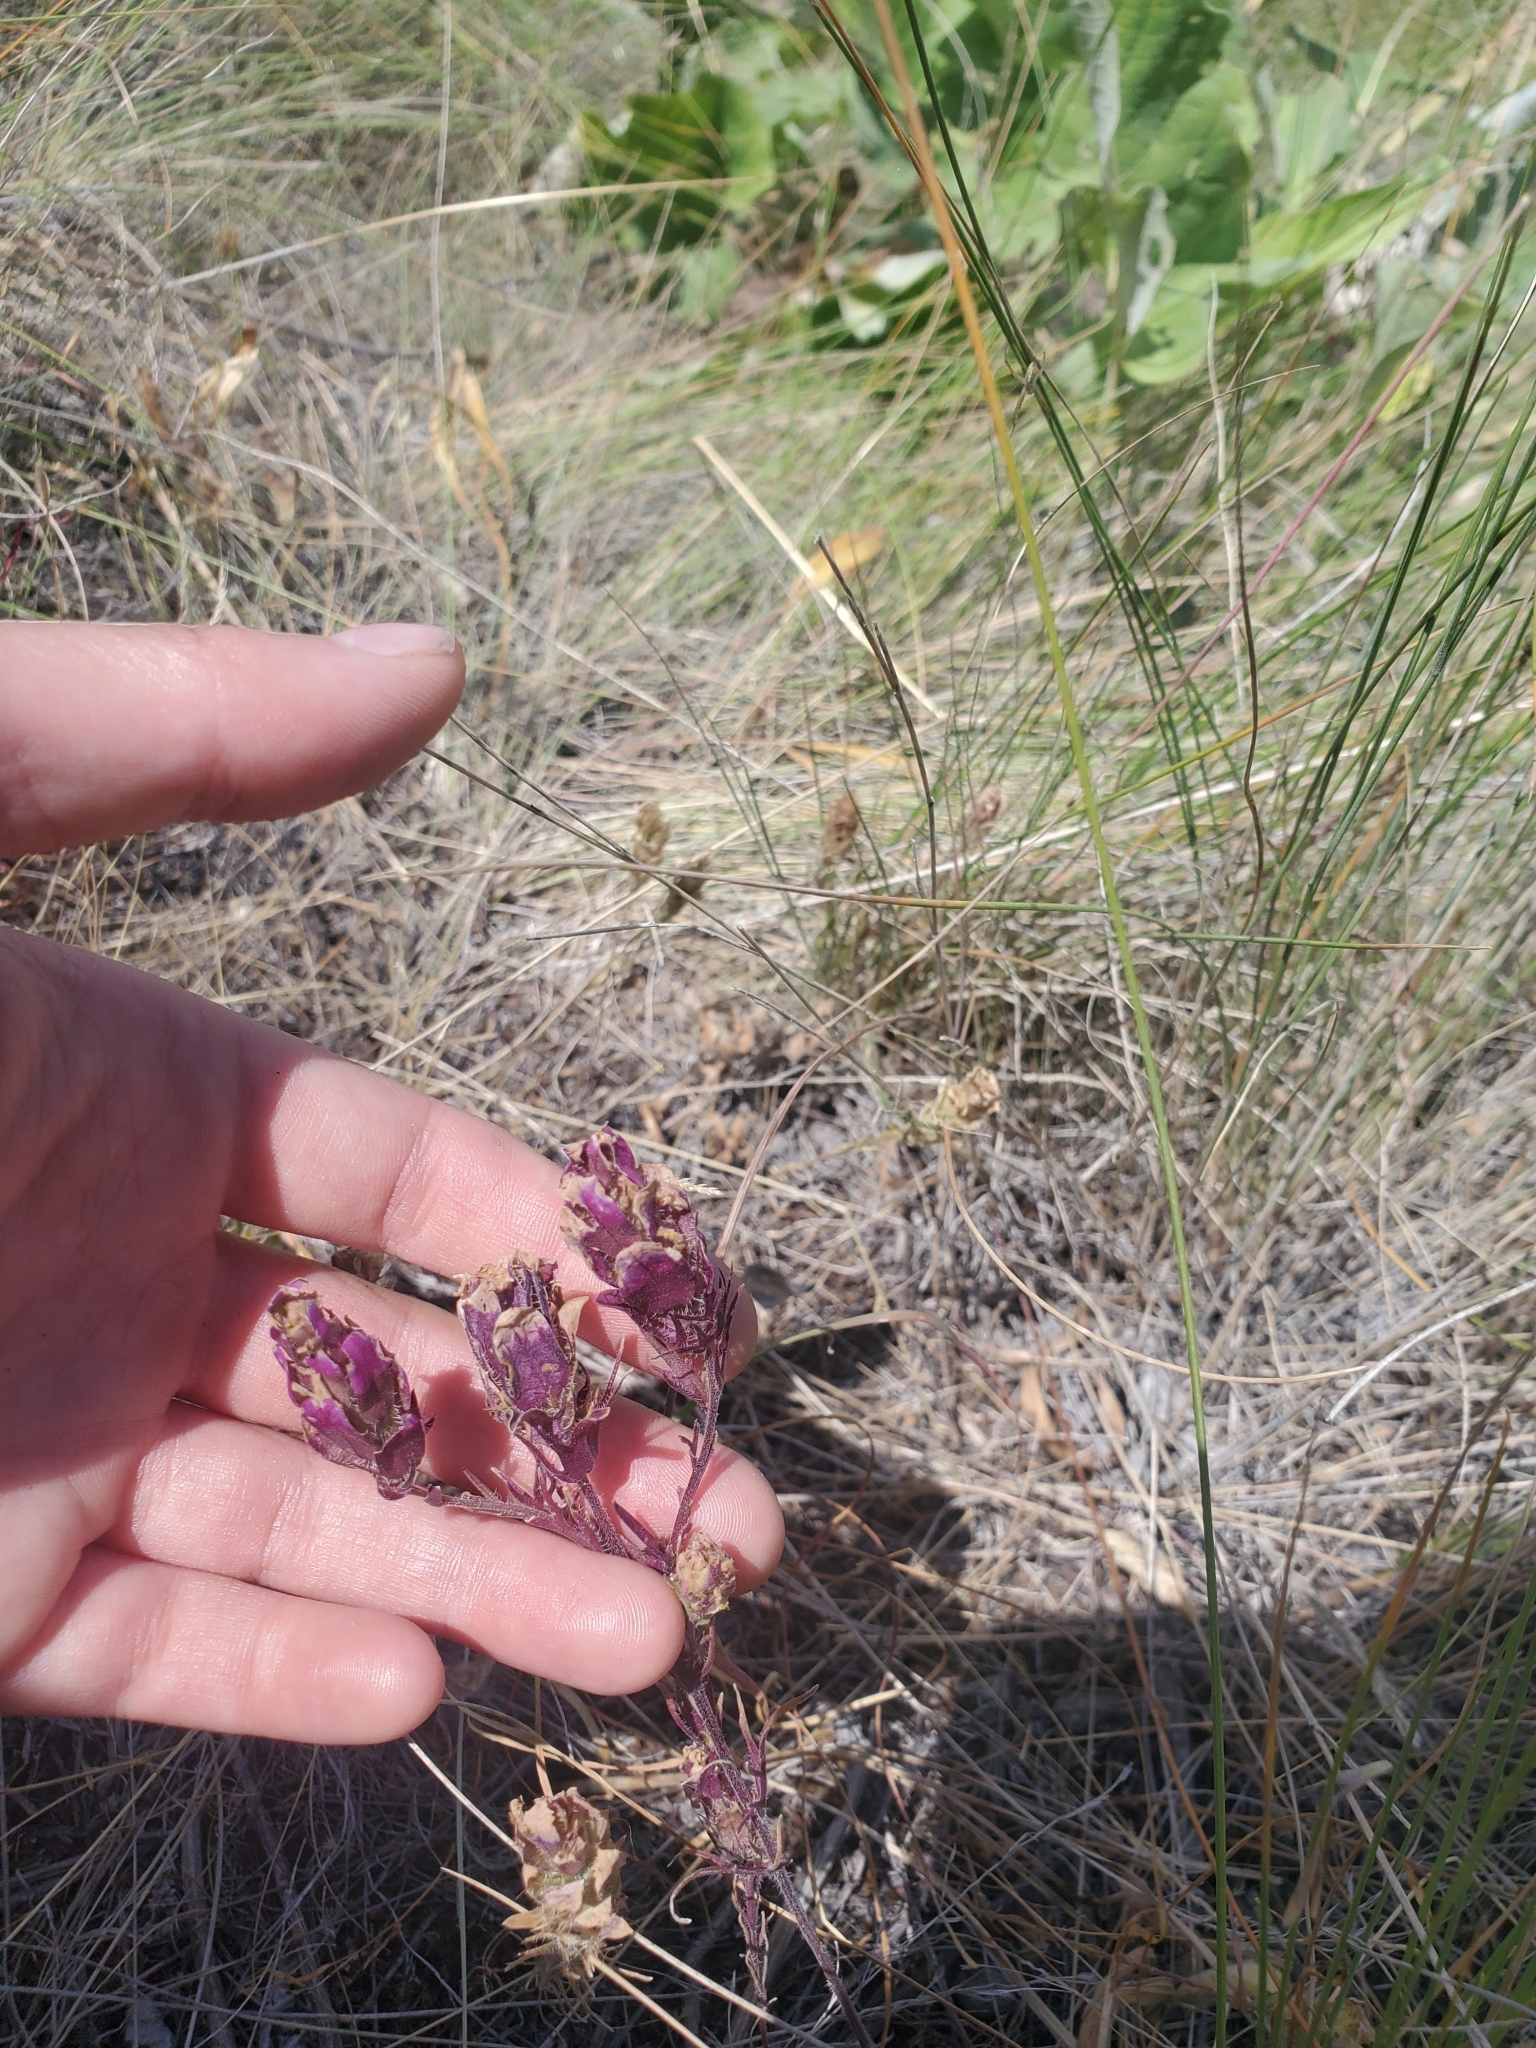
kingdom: Plantae
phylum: Tracheophyta
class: Magnoliopsida
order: Lamiales
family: Orobanchaceae
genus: Orthocarpus
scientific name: Orthocarpus tenuifolius
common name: Thin-leaved owl's-clover
